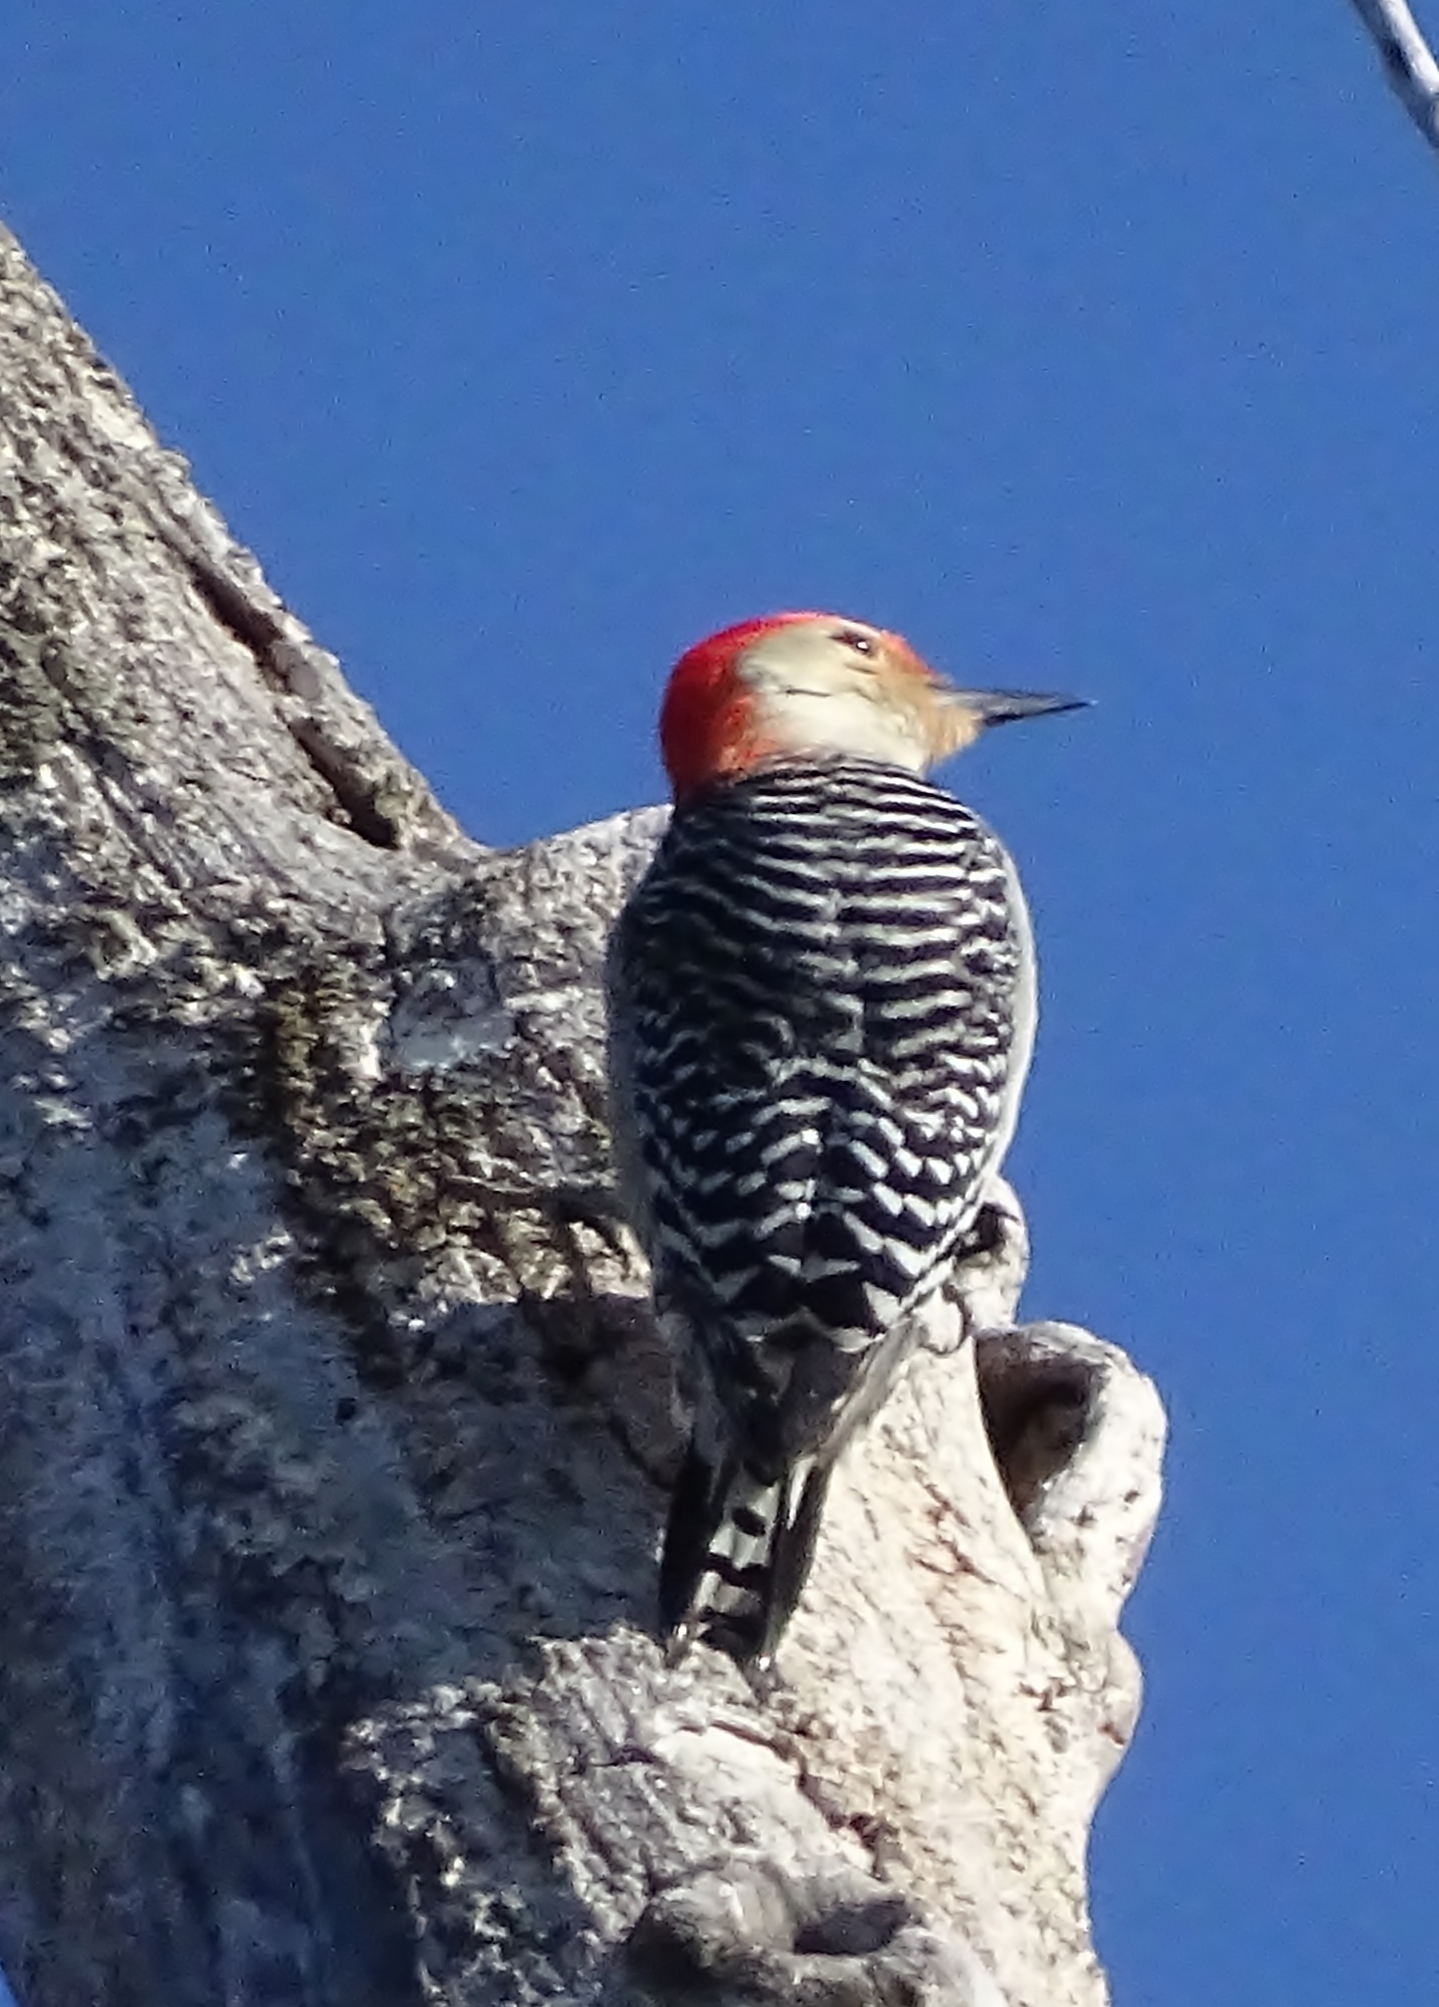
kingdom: Animalia
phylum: Chordata
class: Aves
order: Piciformes
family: Picidae
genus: Melanerpes
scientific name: Melanerpes carolinus
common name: Red-bellied woodpecker
